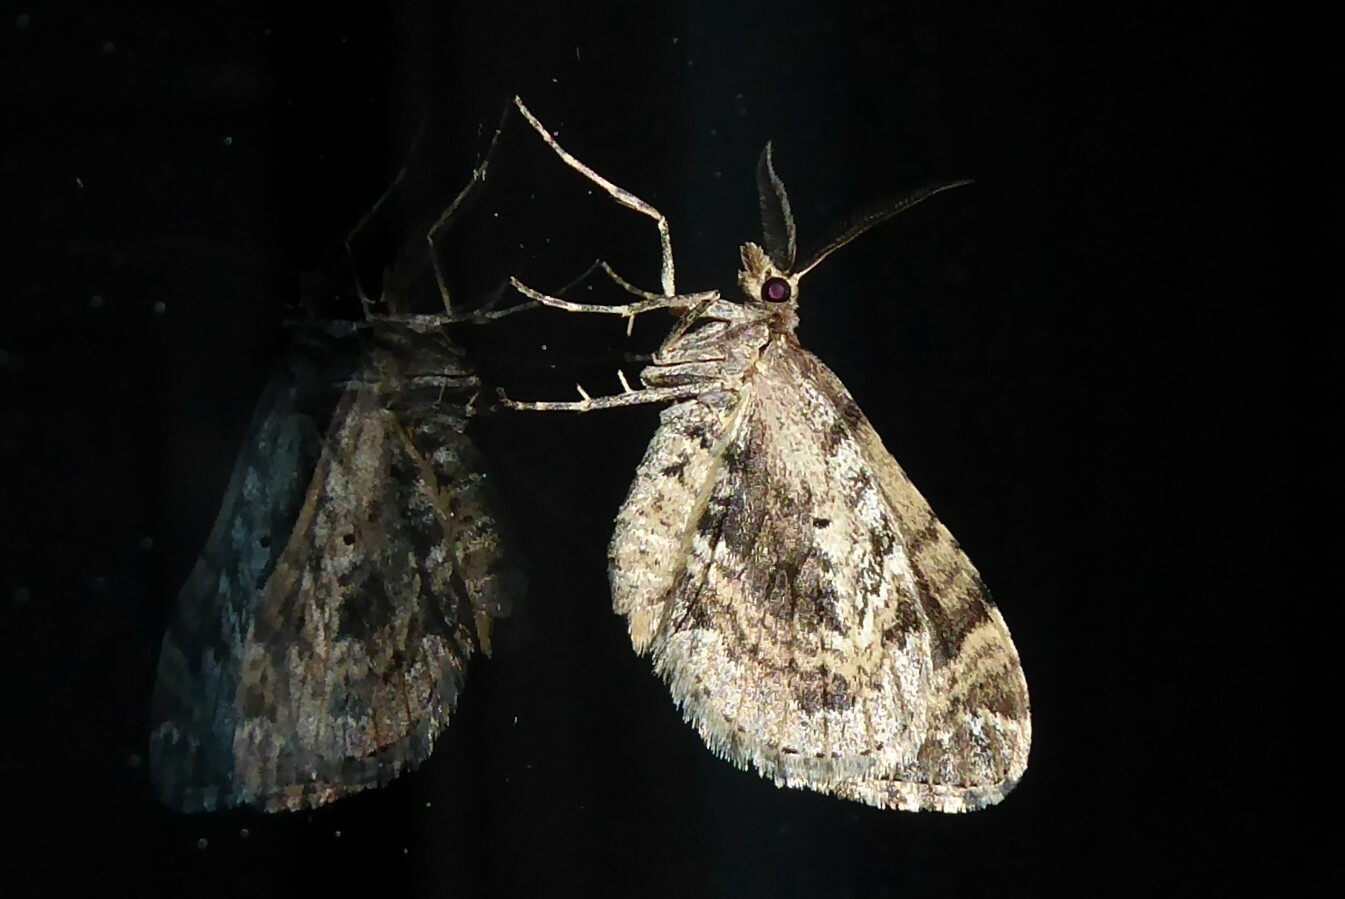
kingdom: Animalia
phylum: Arthropoda
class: Insecta
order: Lepidoptera
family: Geometridae
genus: Asaphodes
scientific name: Asaphodes aegrota
